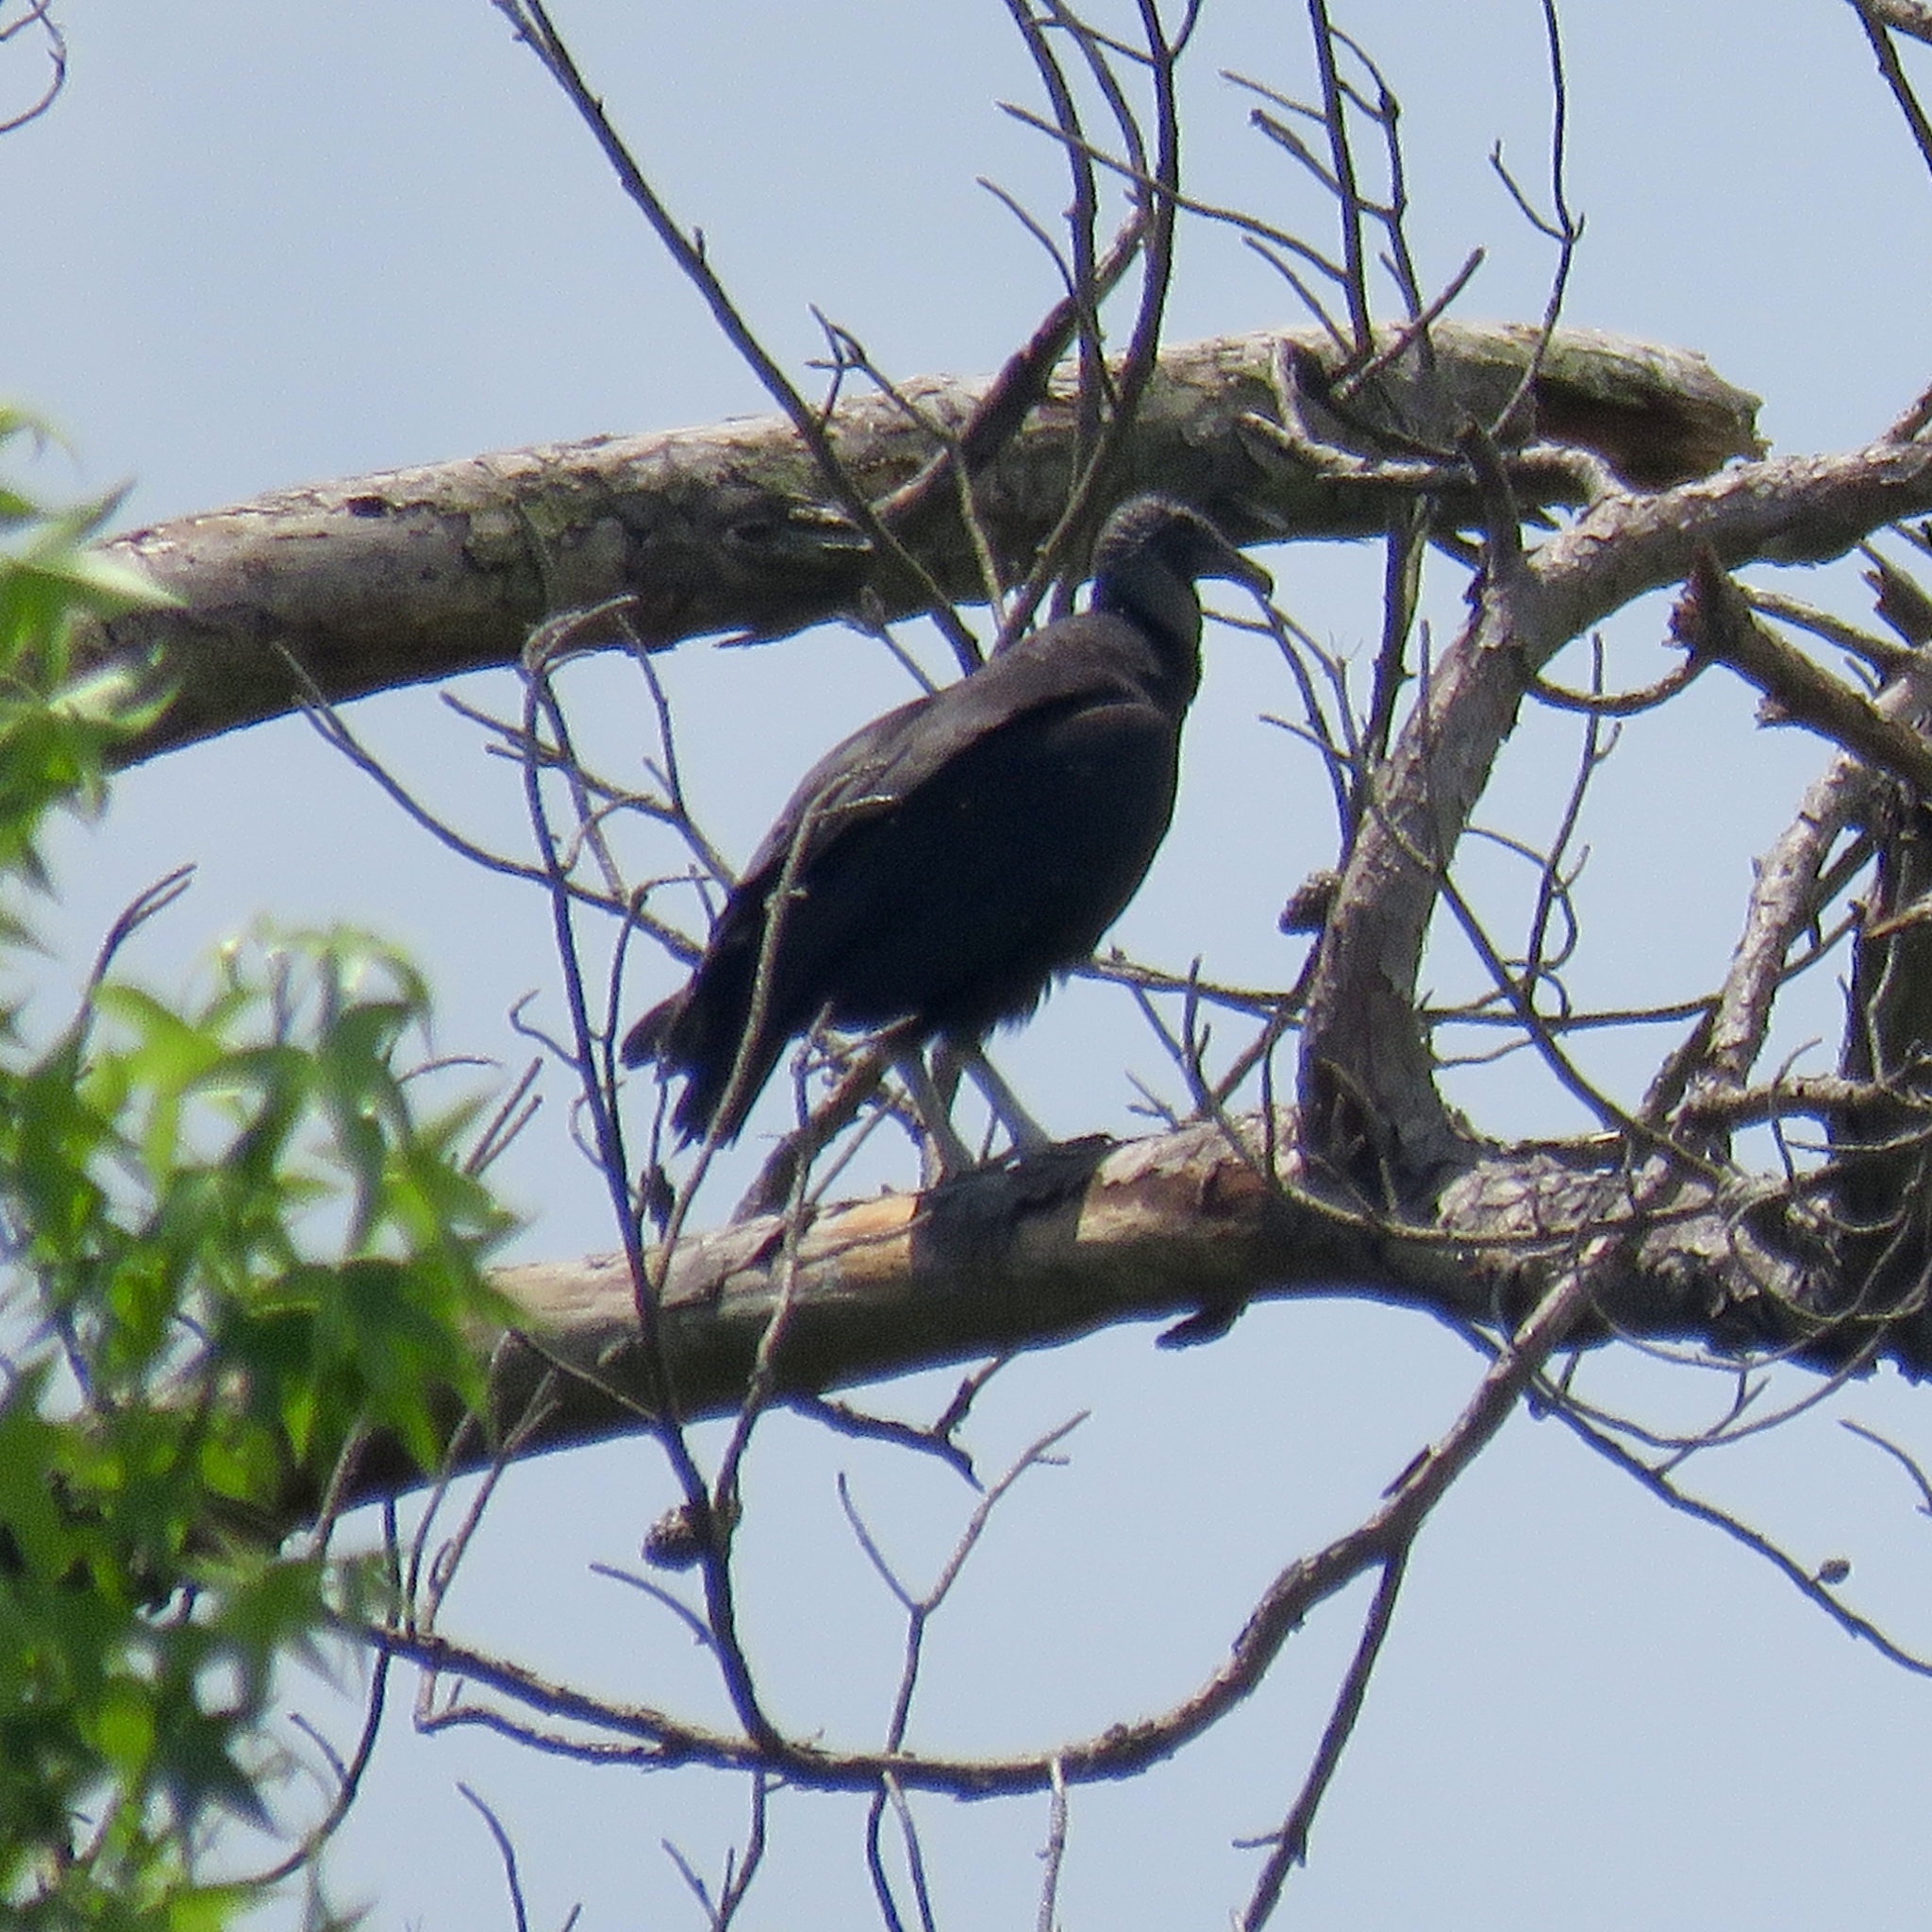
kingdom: Animalia
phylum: Chordata
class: Aves
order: Accipitriformes
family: Cathartidae
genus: Coragyps
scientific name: Coragyps atratus
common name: Black vulture
